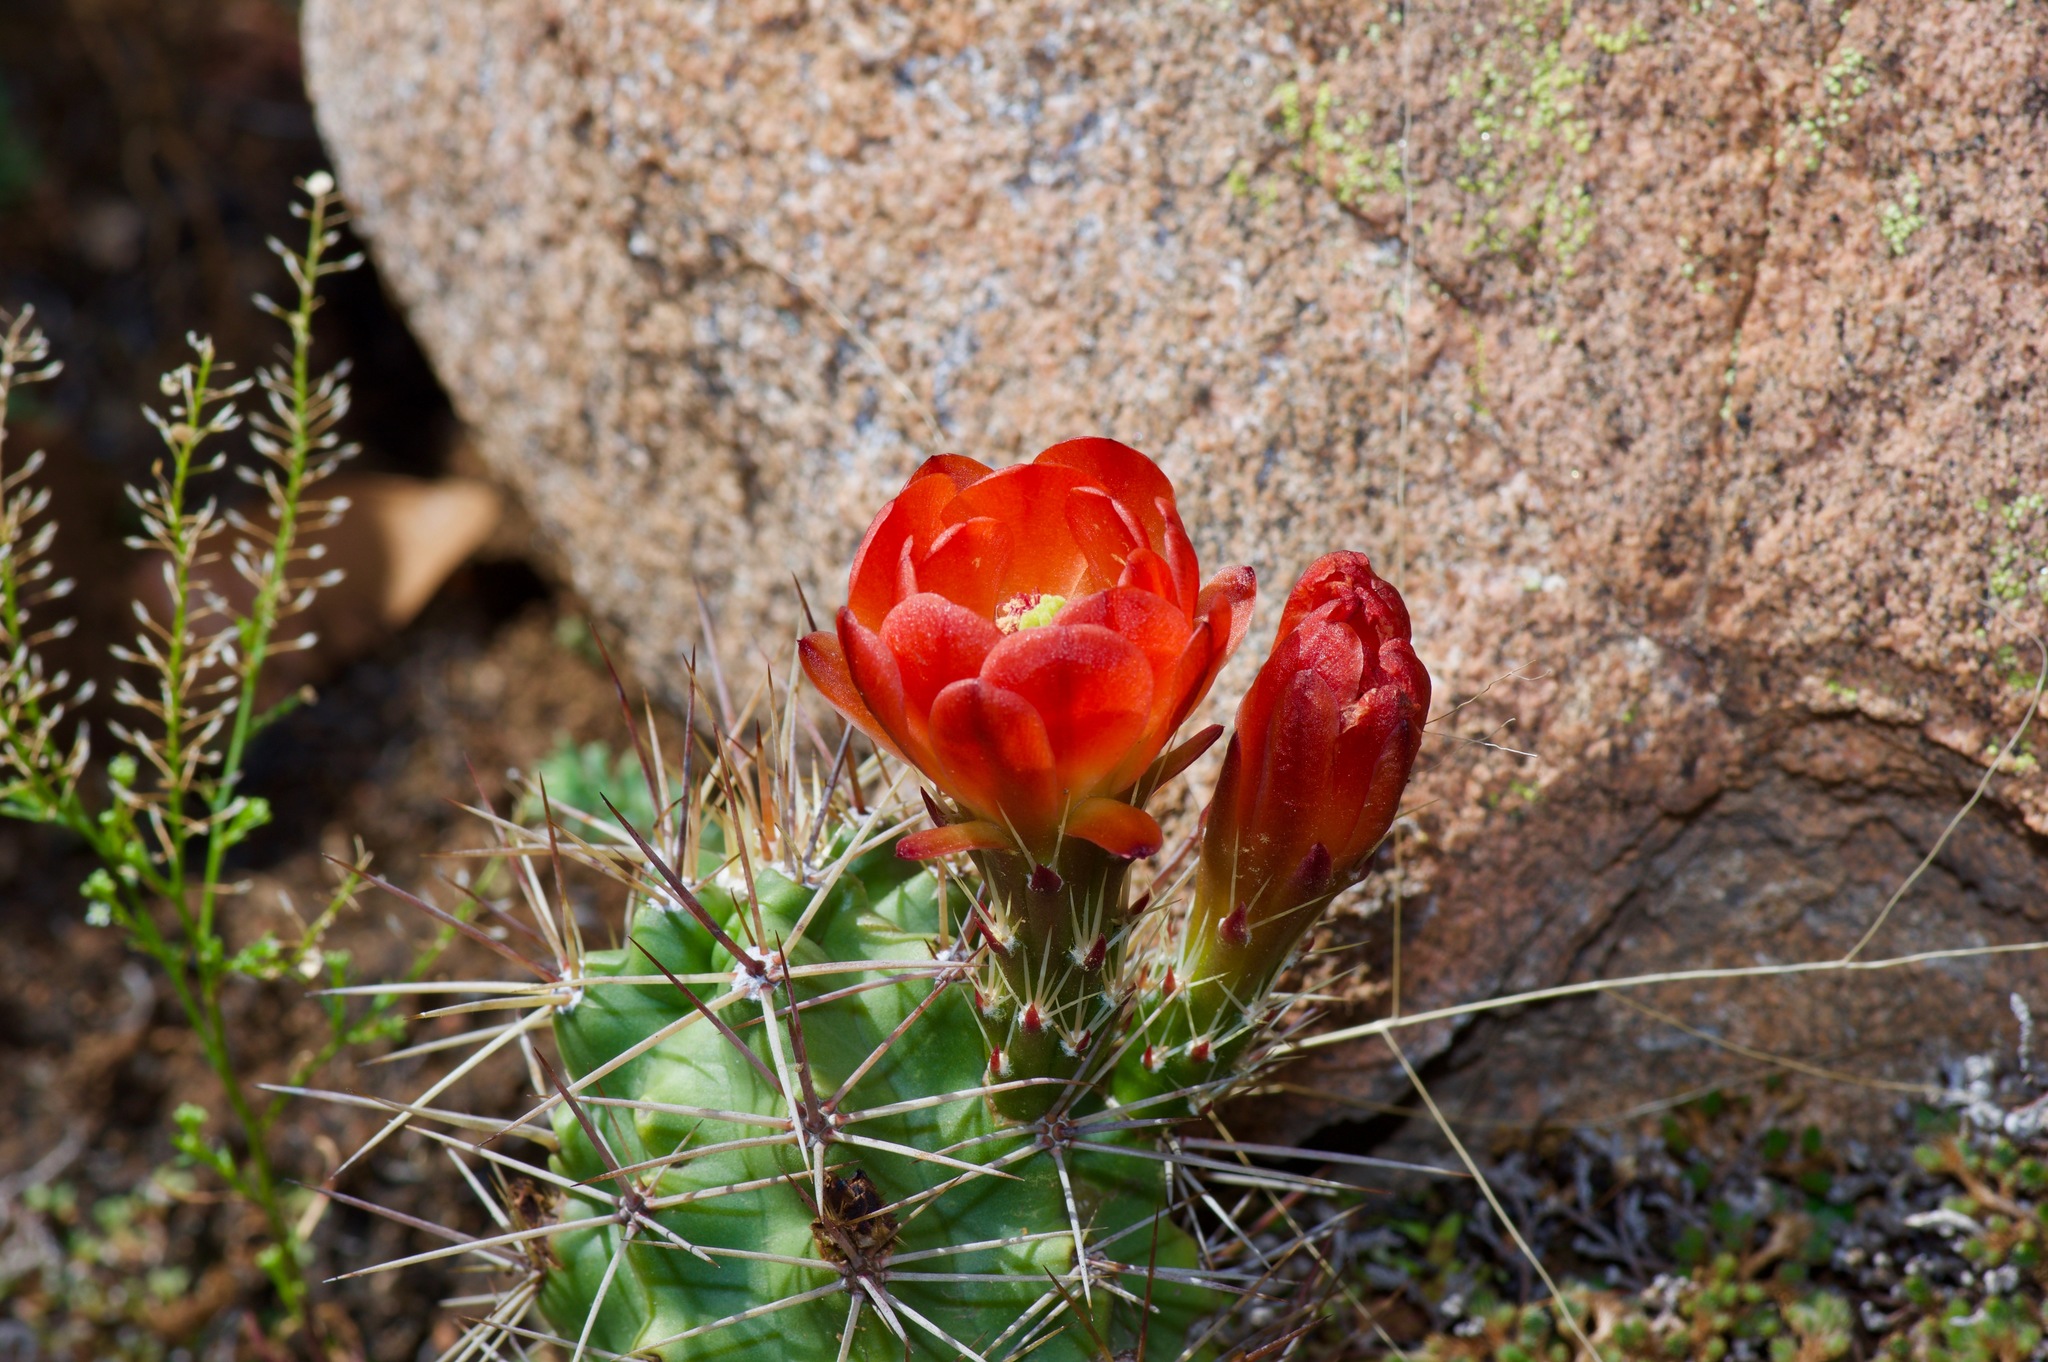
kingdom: Plantae
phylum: Tracheophyta
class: Magnoliopsida
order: Caryophyllales
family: Cactaceae
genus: Echinocereus
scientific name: Echinocereus coccineus
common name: Scarlet hedgehog cactus
